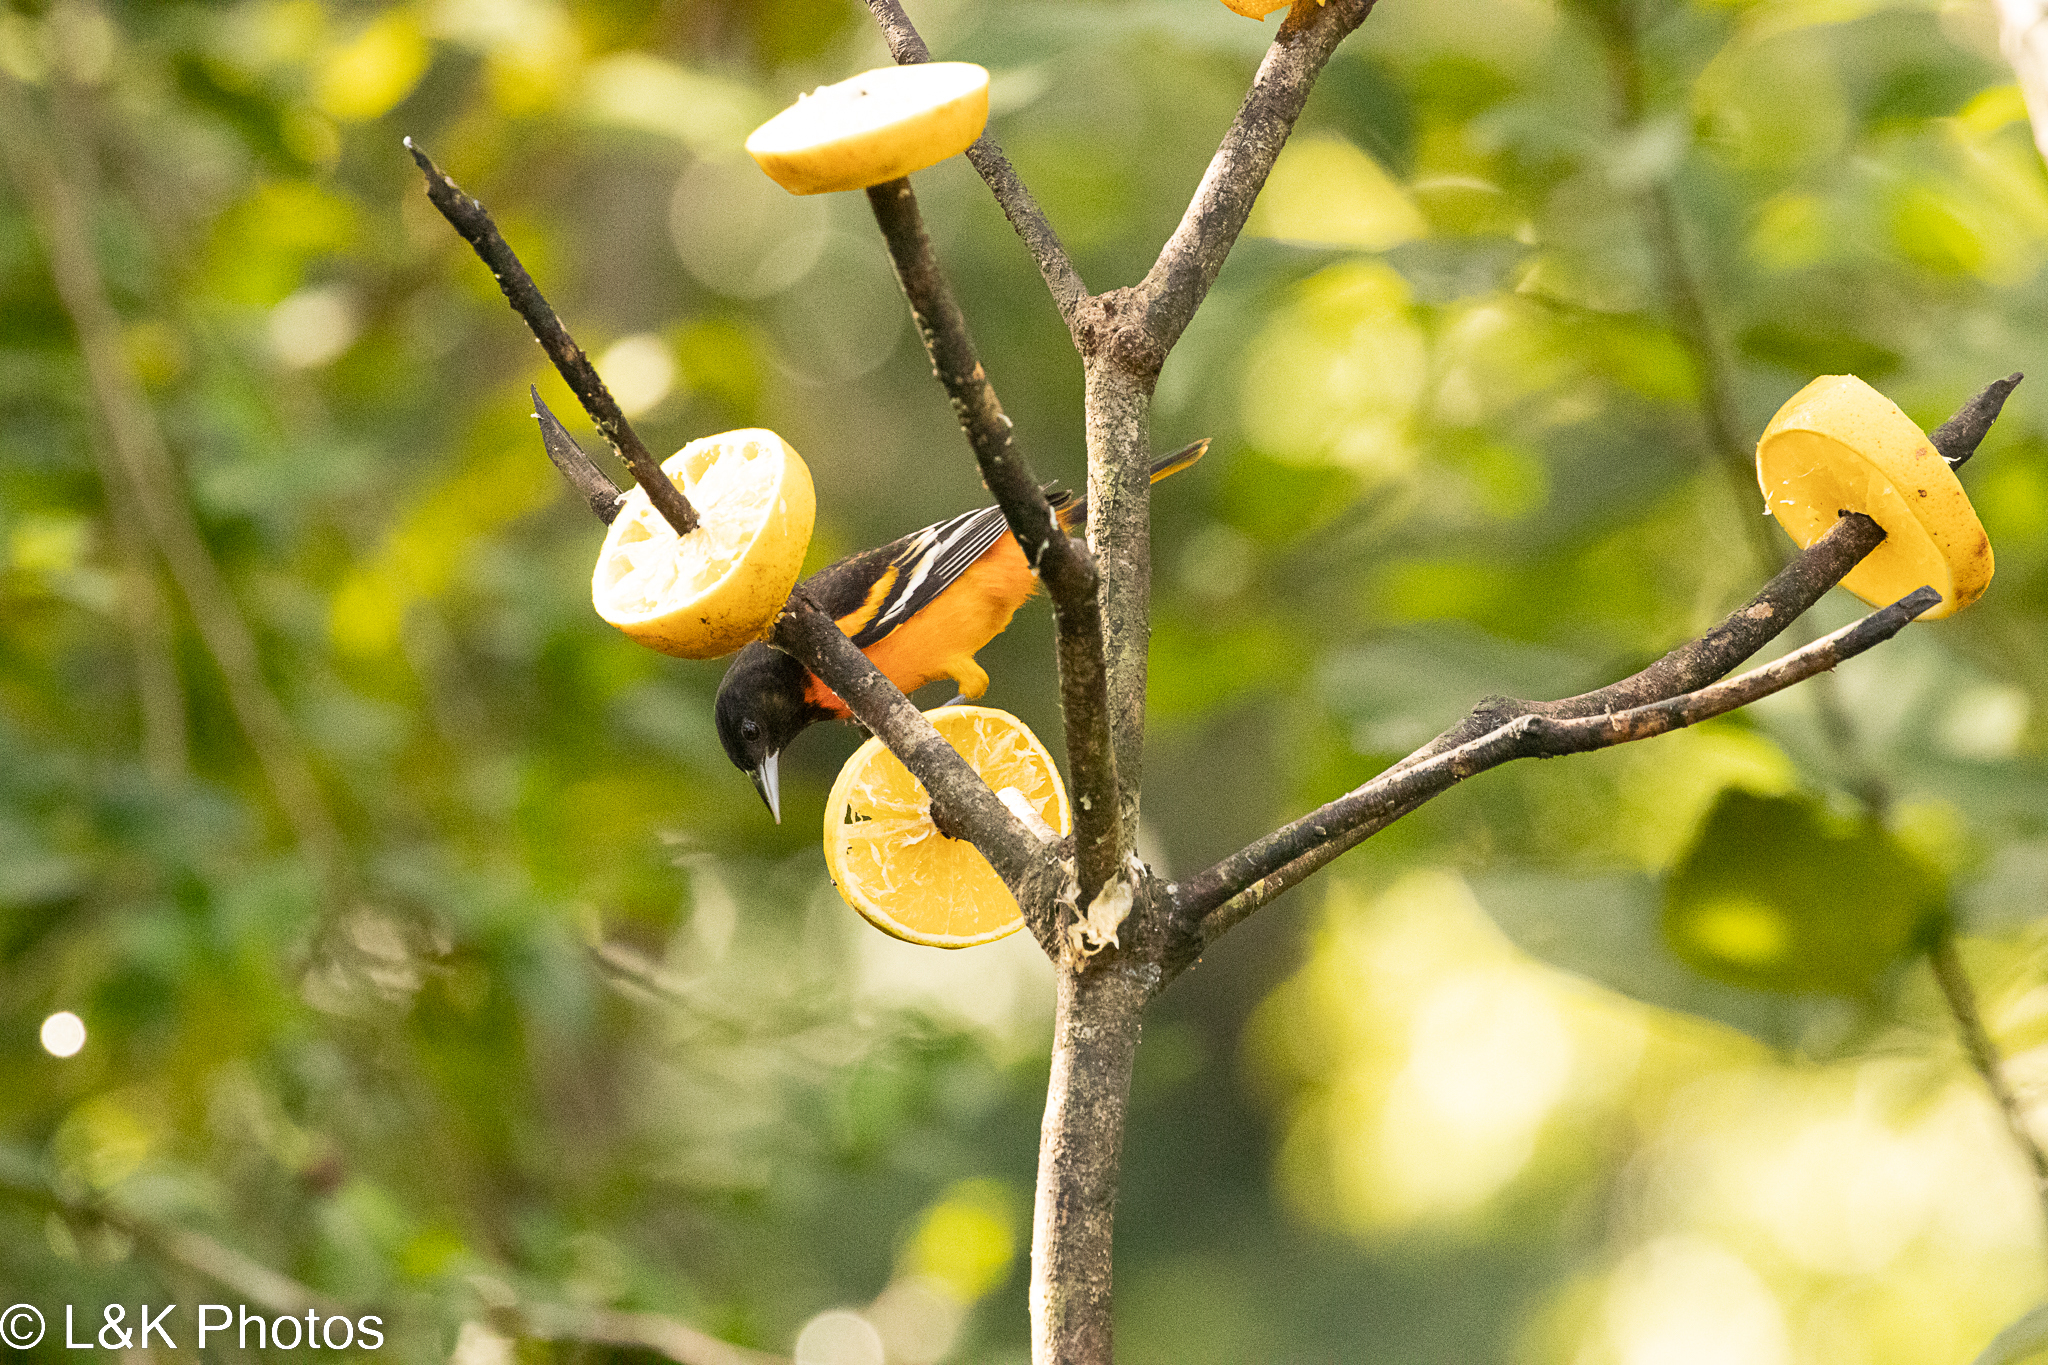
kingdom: Animalia
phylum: Chordata
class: Aves
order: Passeriformes
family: Icteridae
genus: Icterus
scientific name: Icterus galbula
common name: Baltimore oriole
